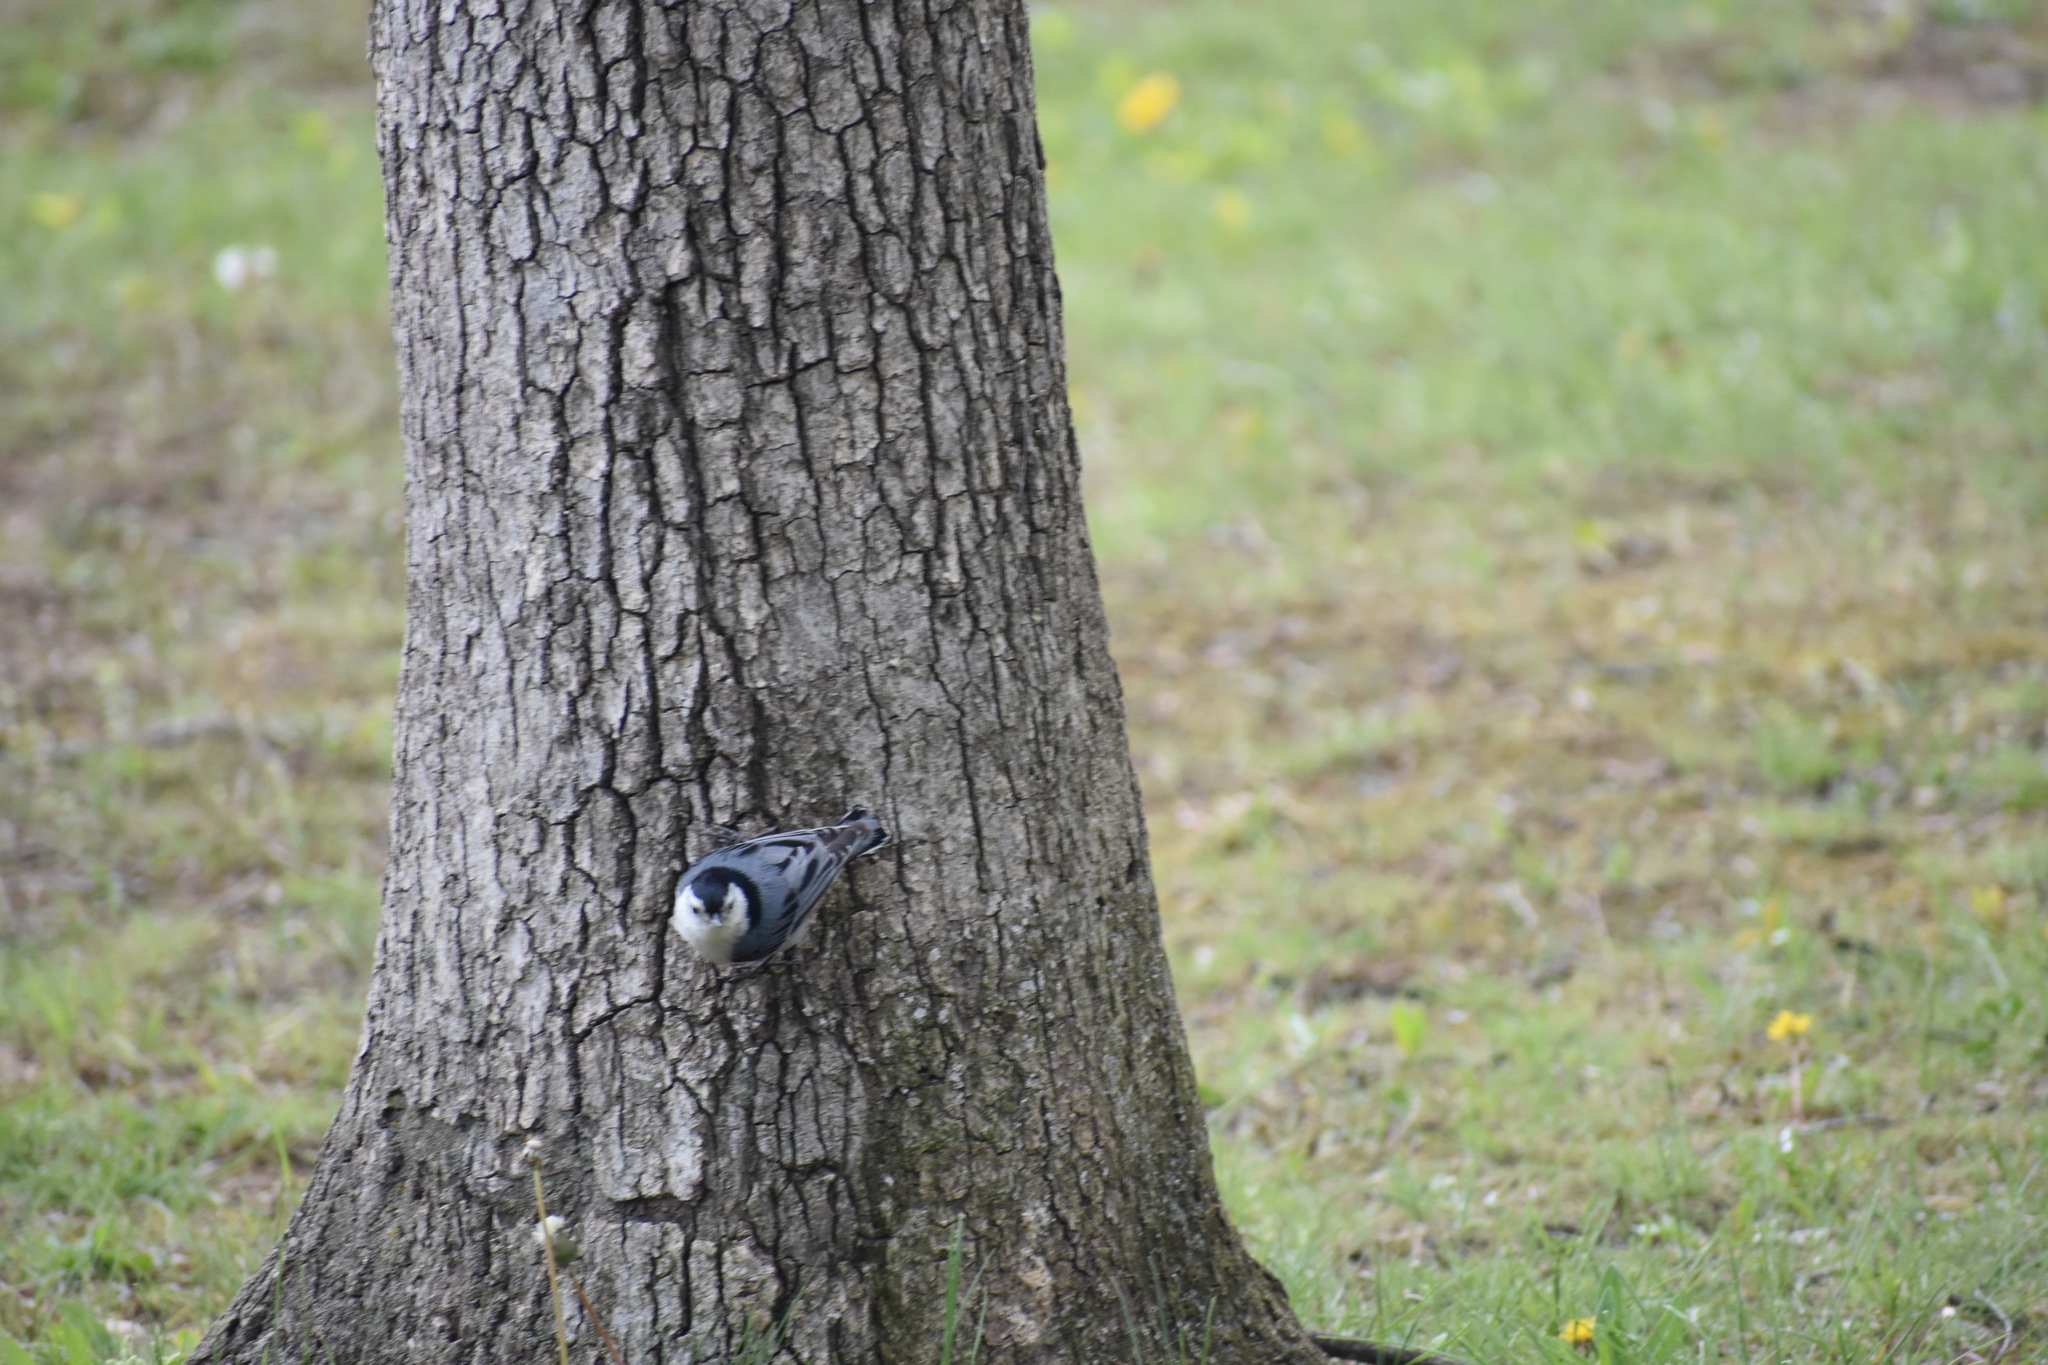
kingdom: Animalia
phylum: Chordata
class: Aves
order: Passeriformes
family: Sittidae
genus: Sitta
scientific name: Sitta carolinensis
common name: White-breasted nuthatch
